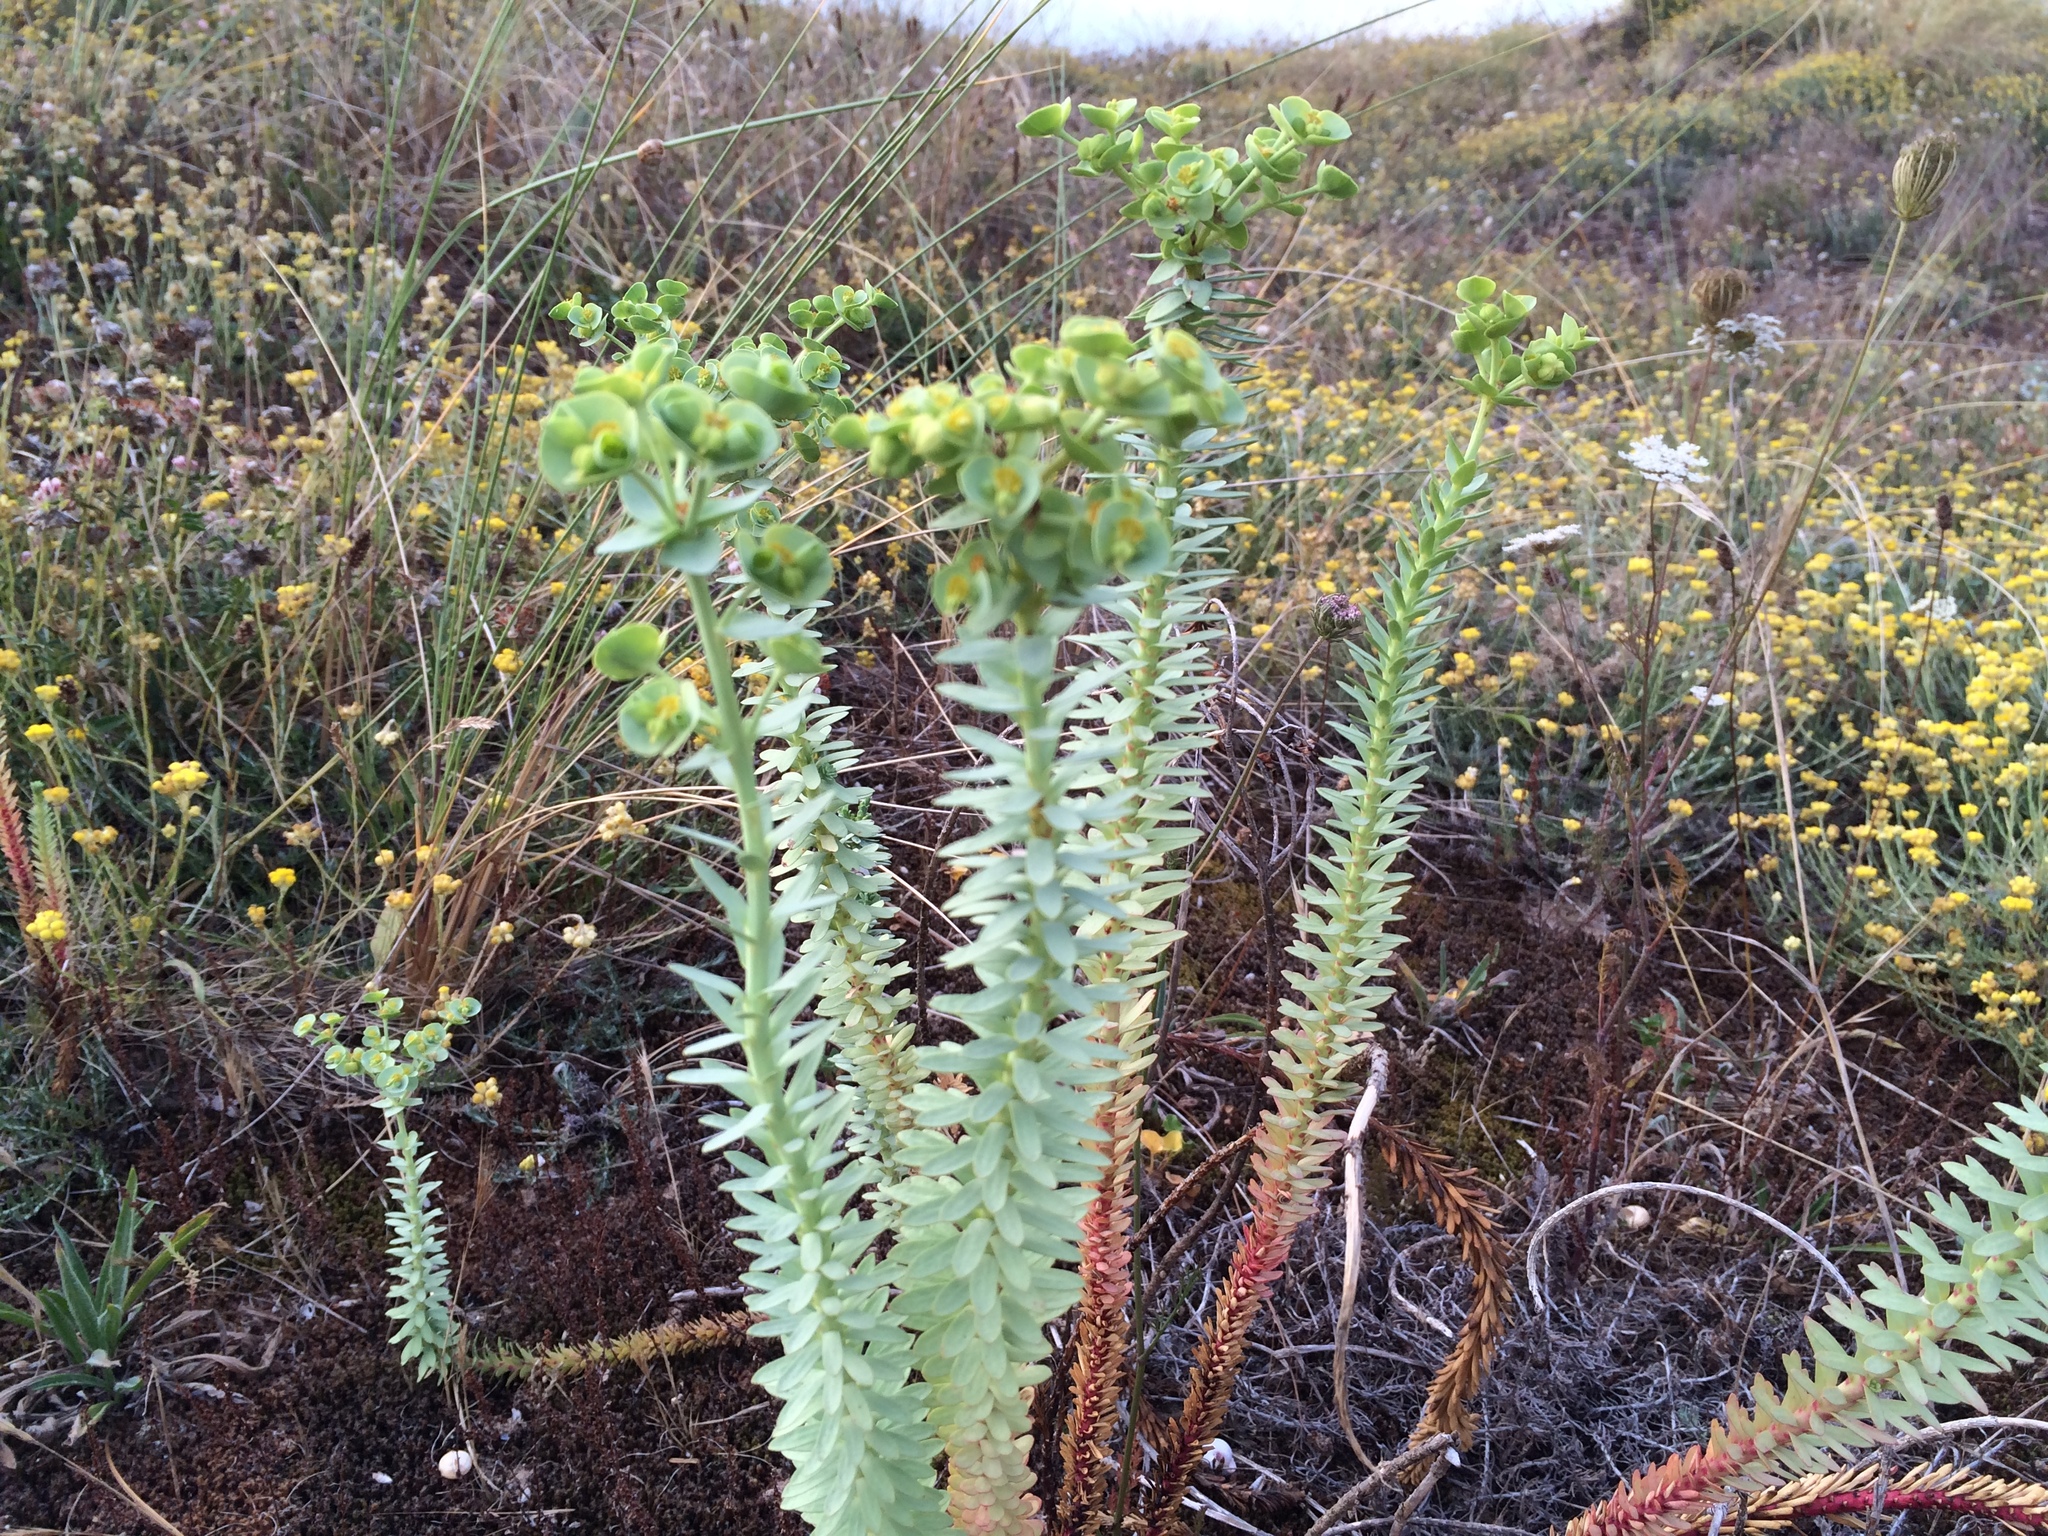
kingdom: Plantae
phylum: Tracheophyta
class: Magnoliopsida
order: Malpighiales
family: Euphorbiaceae
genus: Euphorbia
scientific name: Euphorbia paralias
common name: Sea spurge
